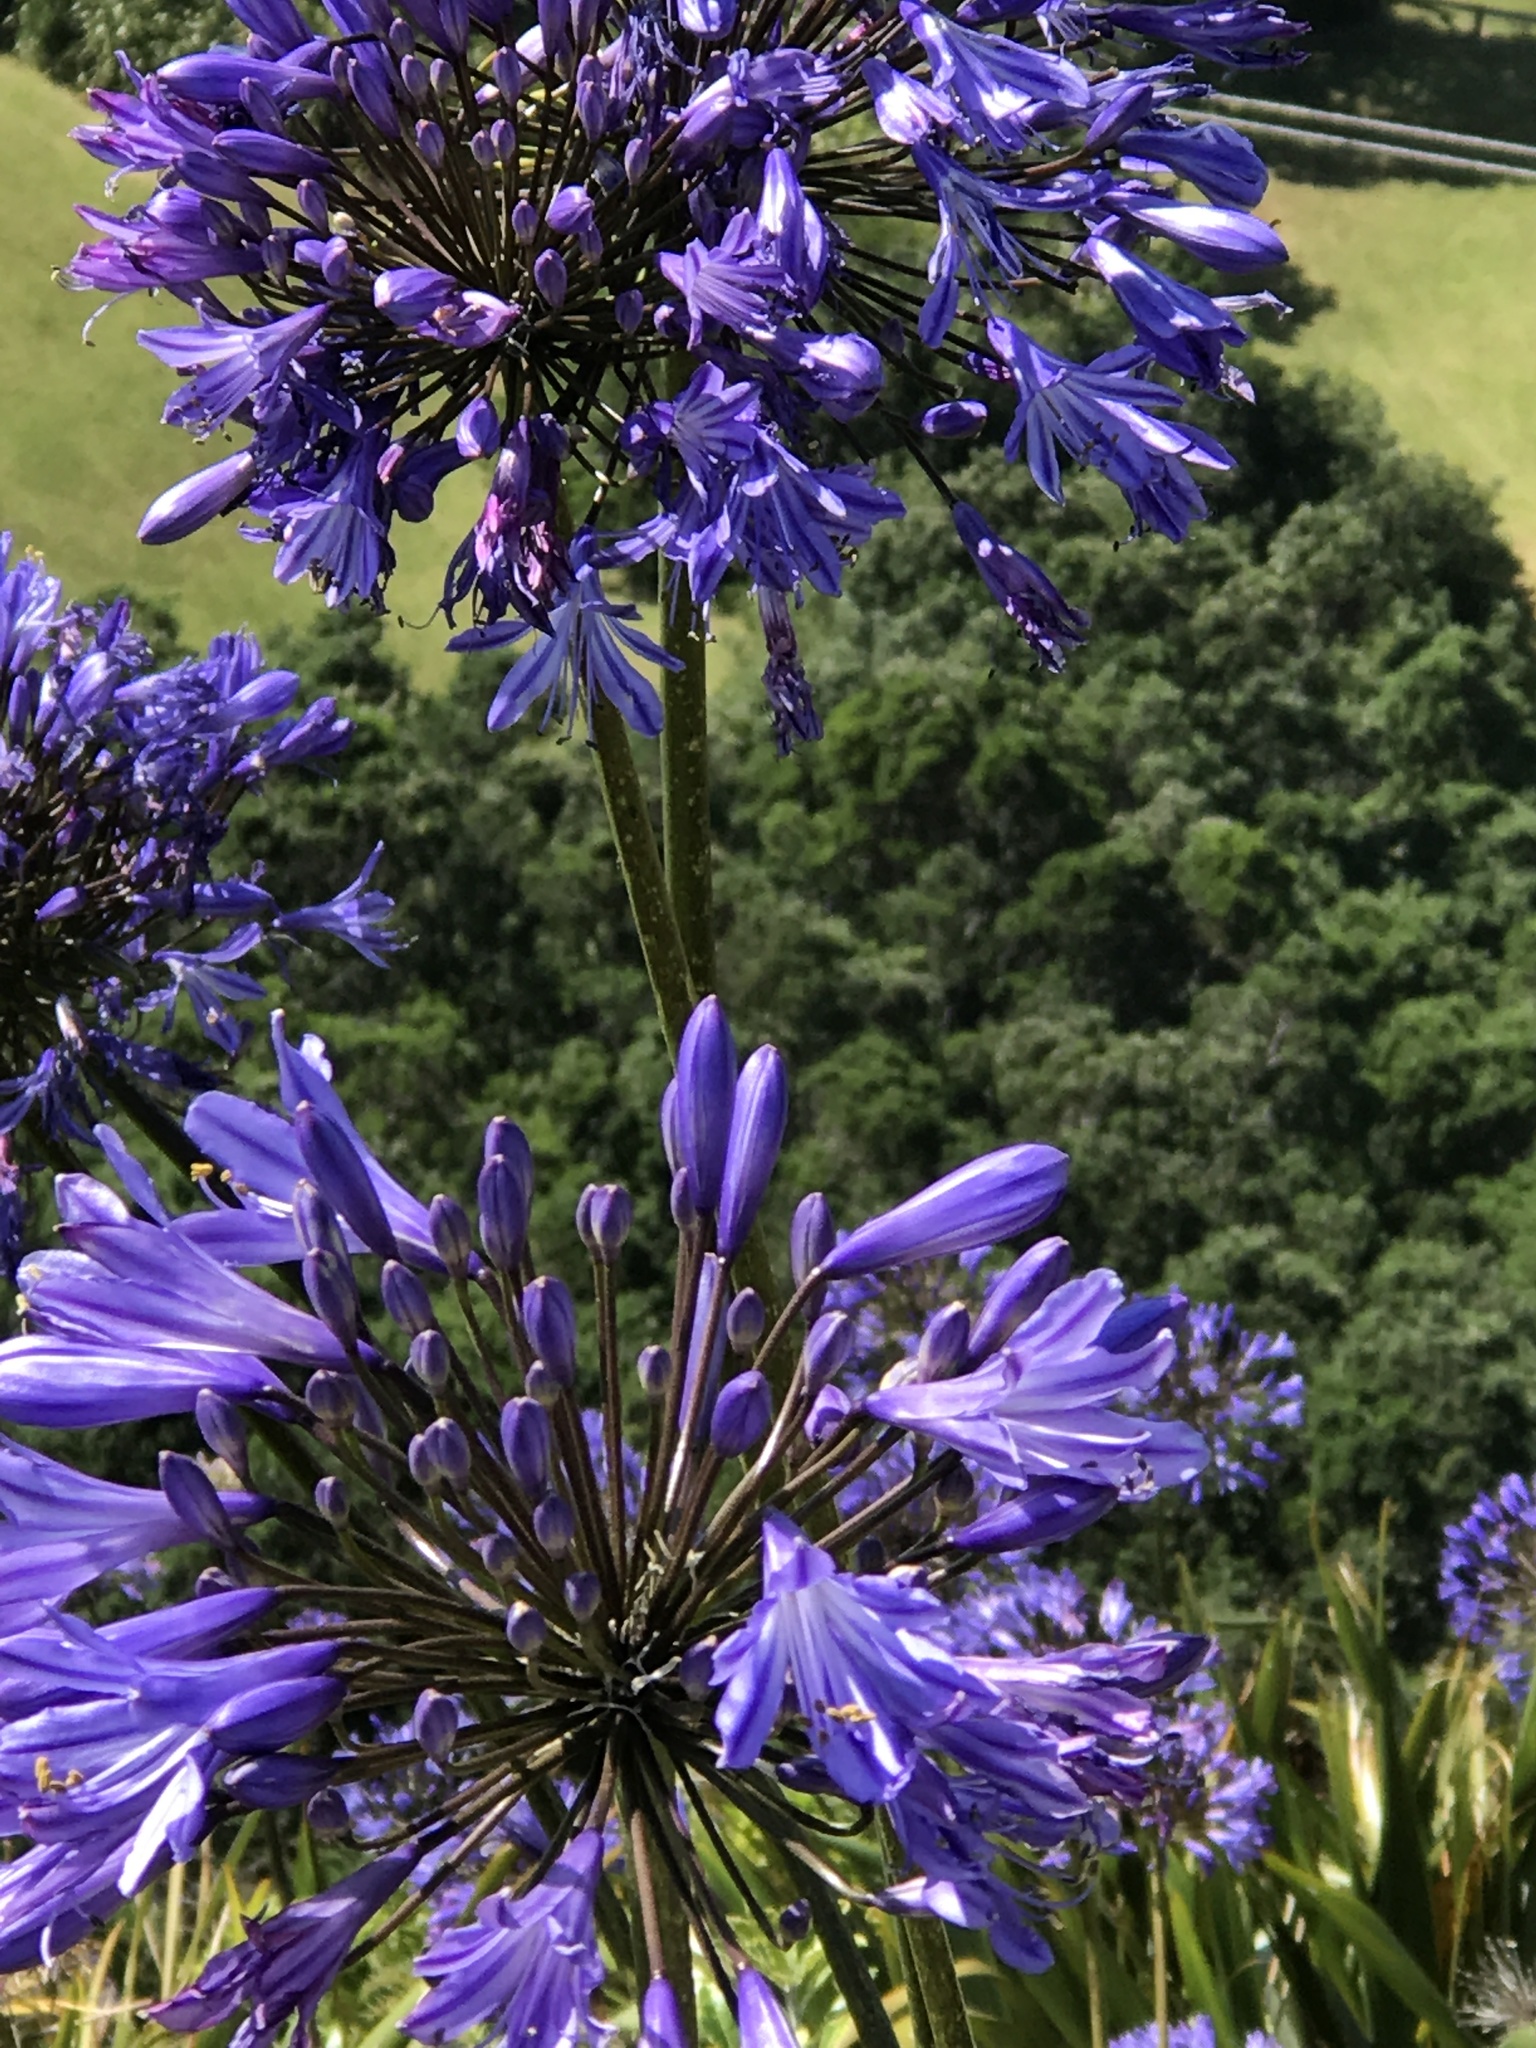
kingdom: Plantae
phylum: Tracheophyta
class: Liliopsida
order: Asparagales
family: Amaryllidaceae
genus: Agapanthus
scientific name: Agapanthus praecox
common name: African-lily
